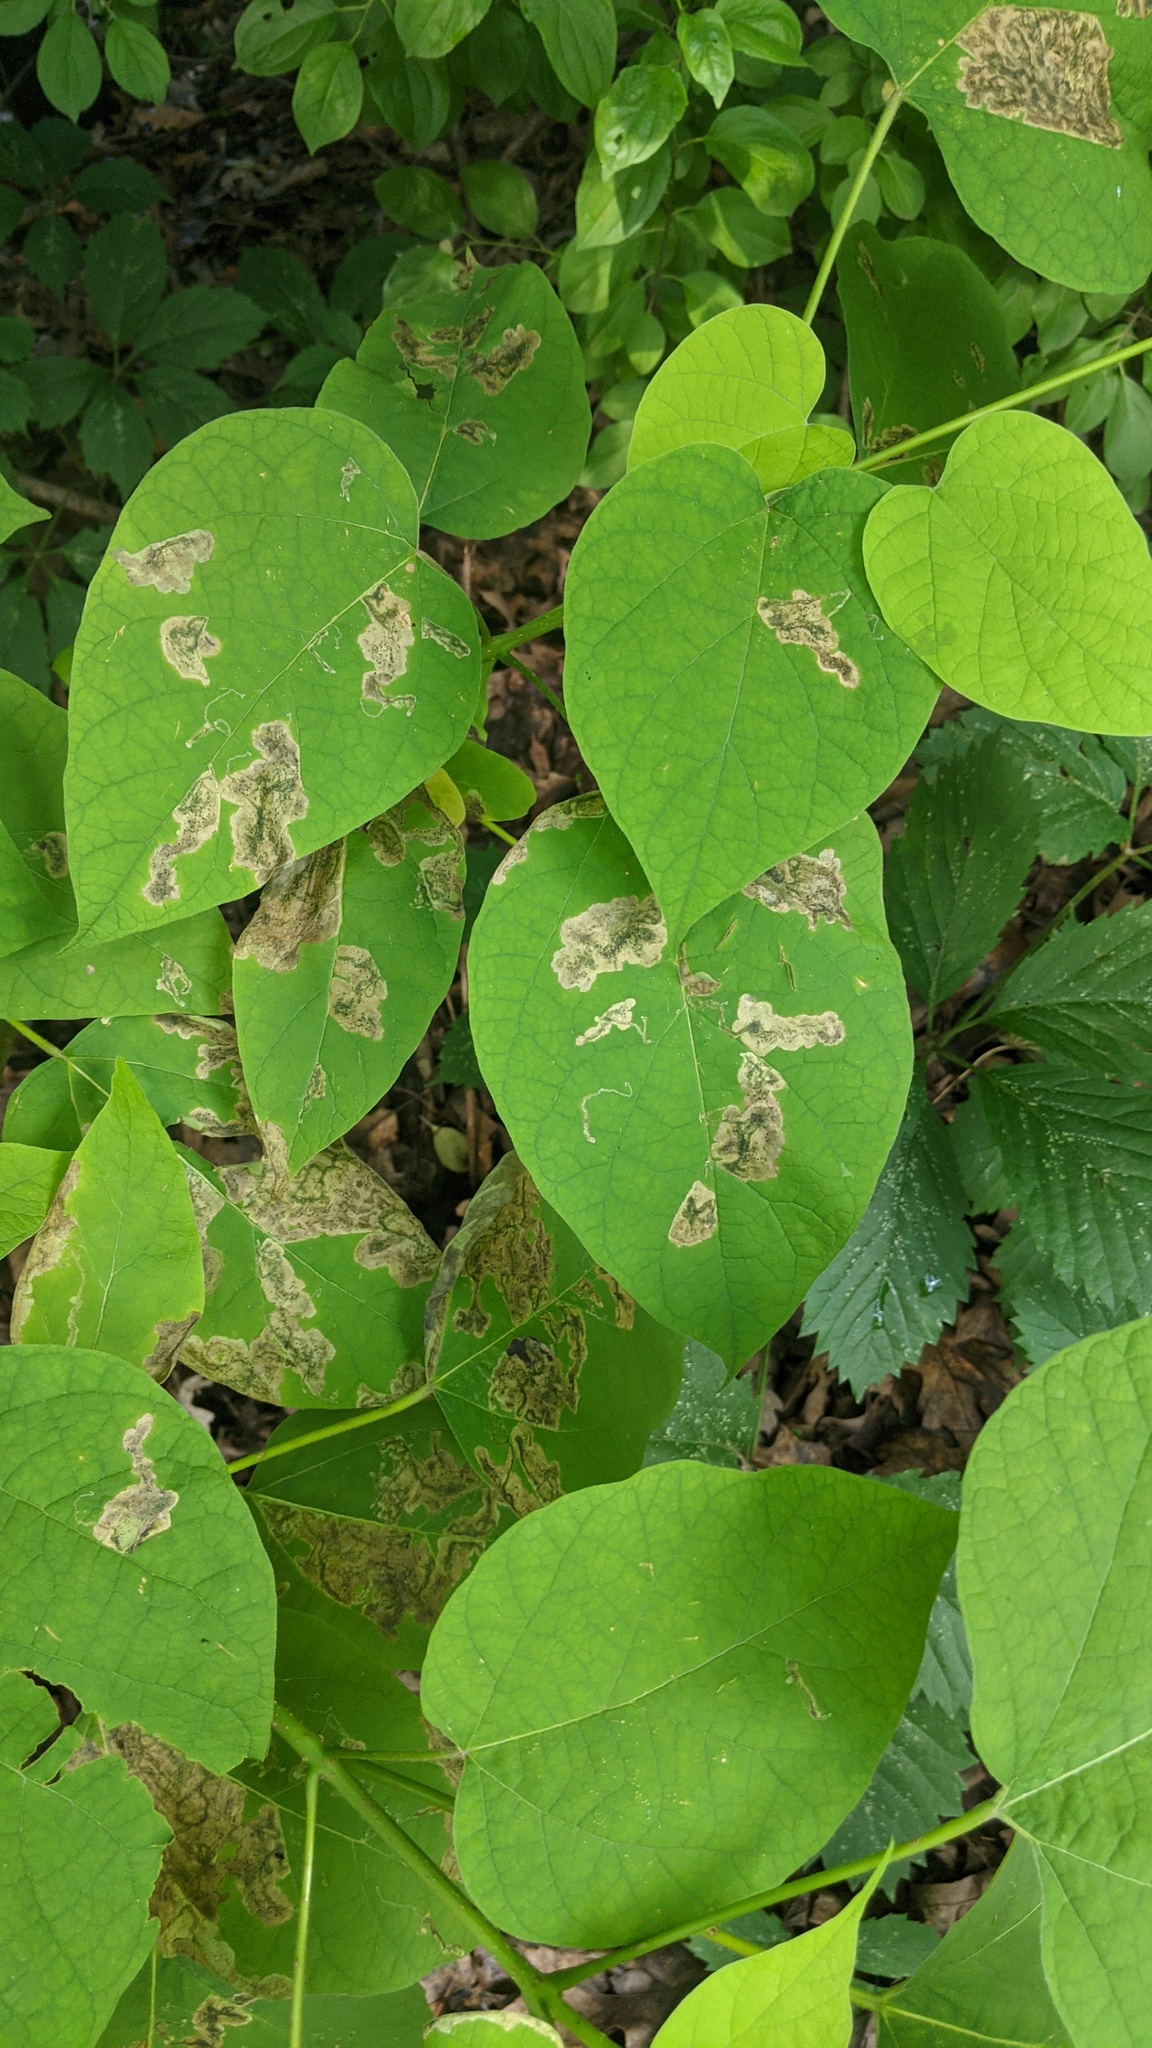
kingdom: Animalia
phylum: Arthropoda
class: Insecta
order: Diptera
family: Agromyzidae
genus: Amauromyza
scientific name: Amauromyza pleuralis
